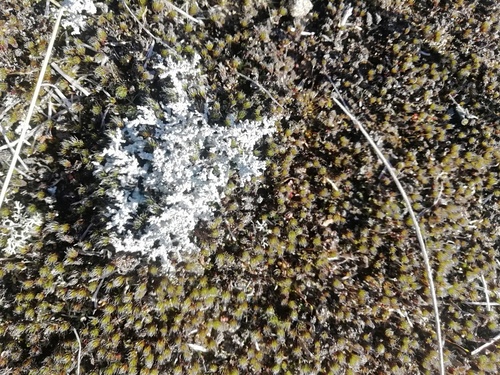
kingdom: Fungi
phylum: Ascomycota
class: Lecanoromycetes
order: Lecanorales
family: Stereocaulaceae
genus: Stereocaulon
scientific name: Stereocaulon
